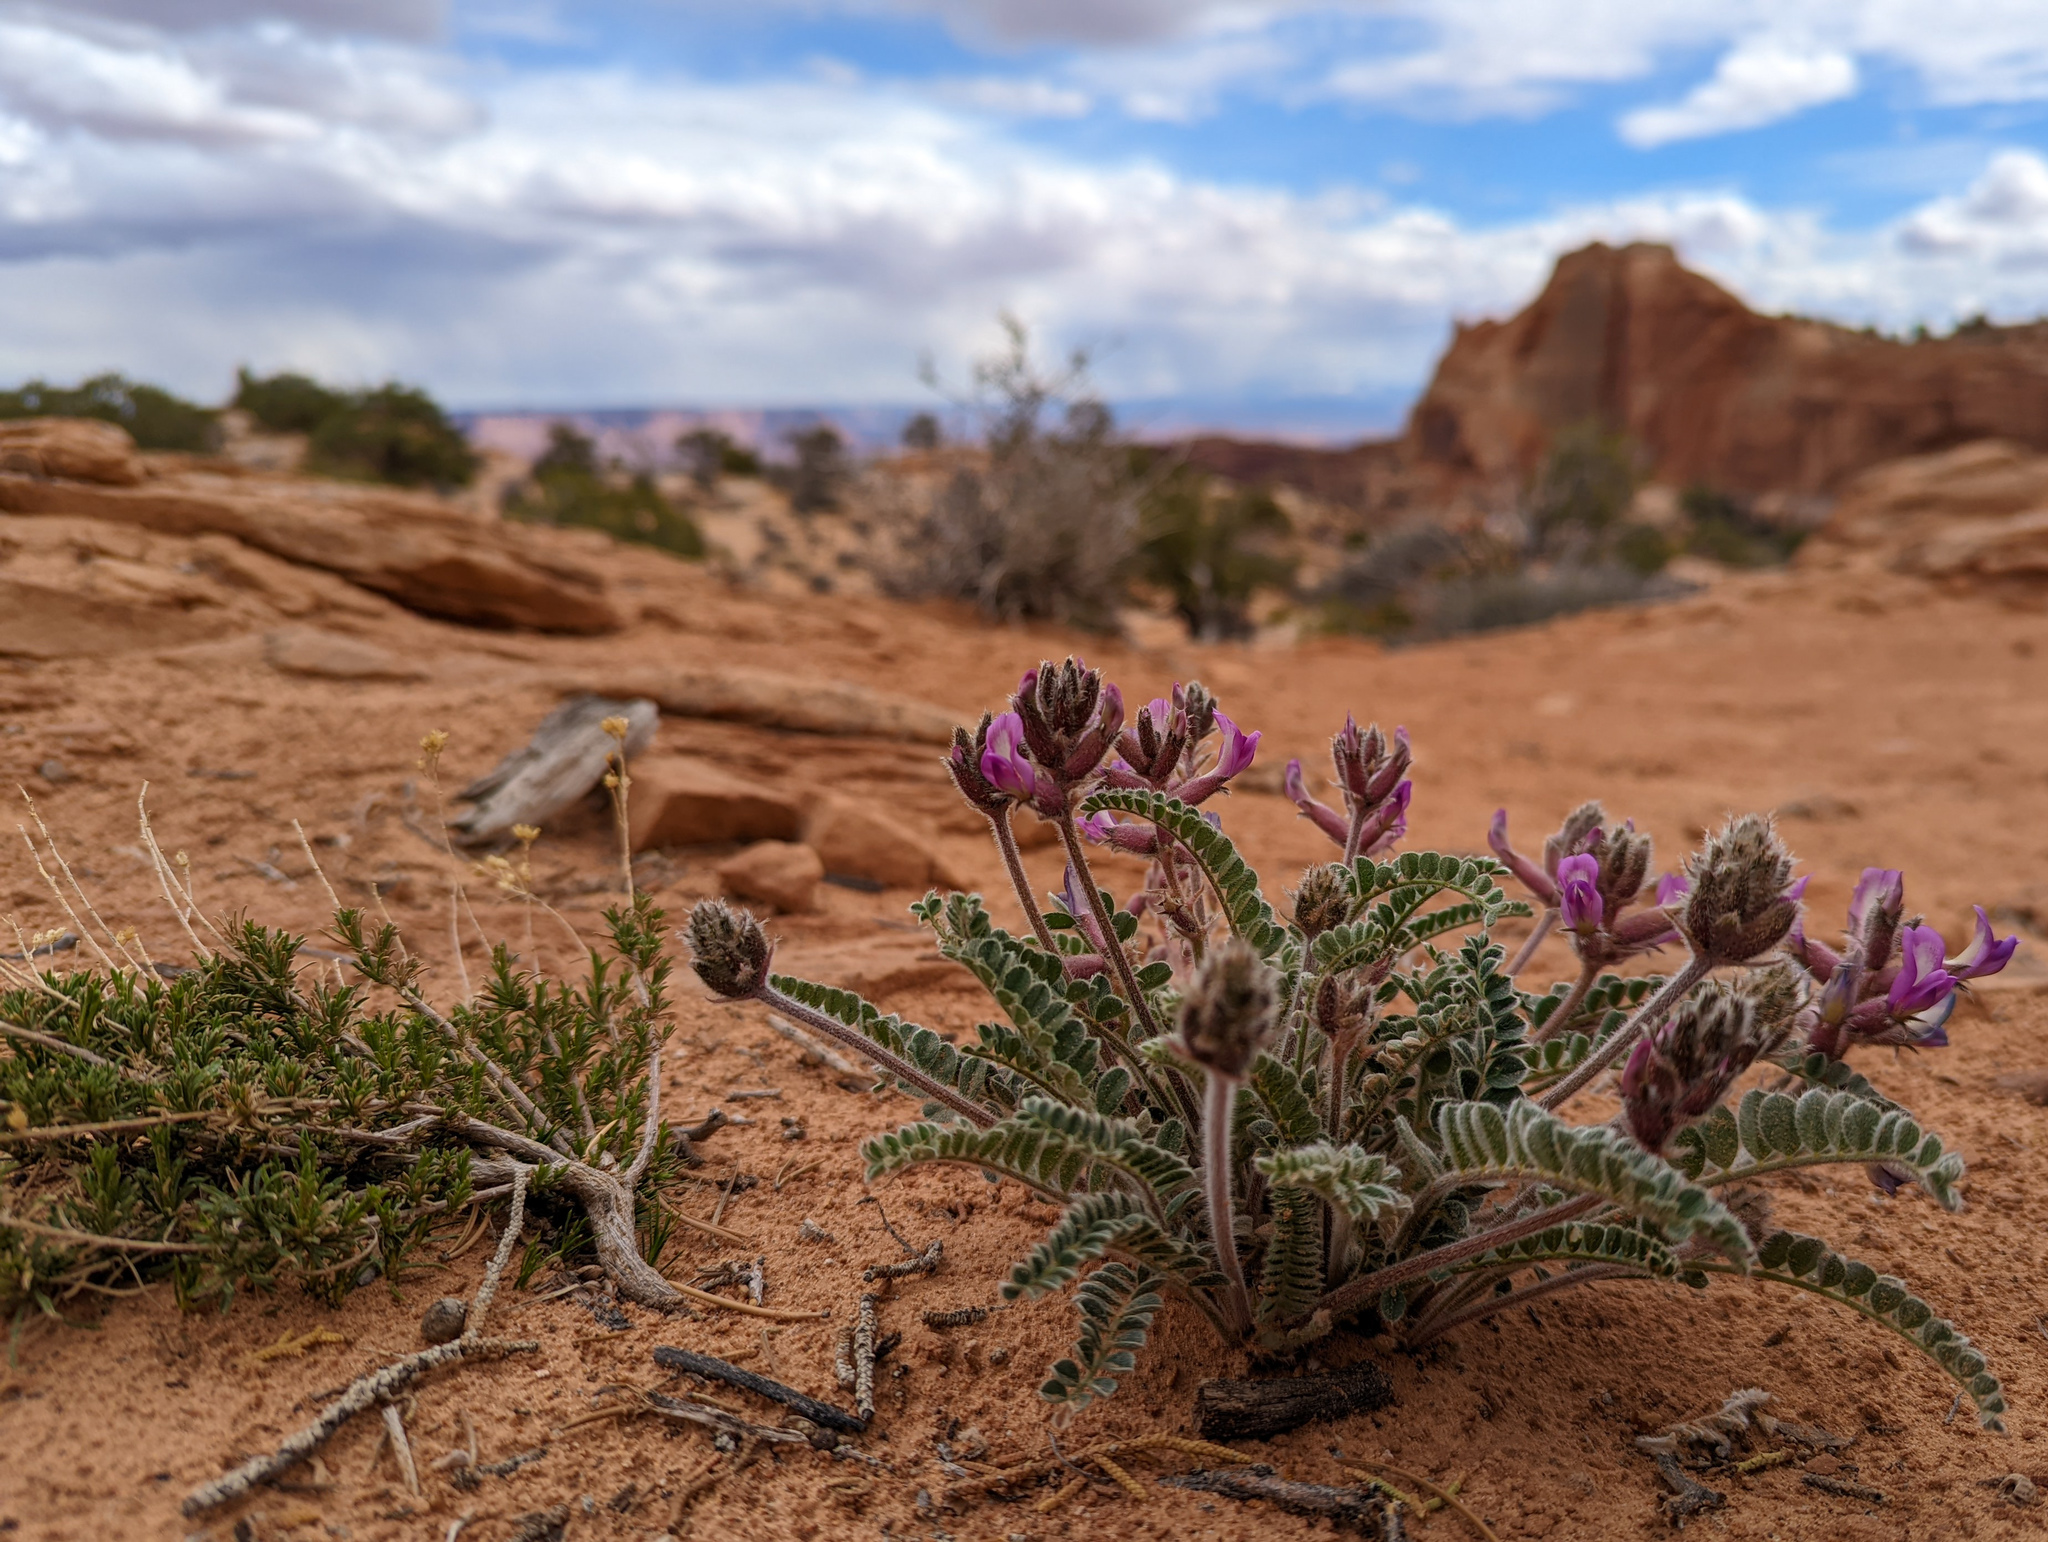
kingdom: Plantae
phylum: Tracheophyta
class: Magnoliopsida
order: Fabales
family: Fabaceae
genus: Astragalus
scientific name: Astragalus mollissimus
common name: Woolly locoweed
